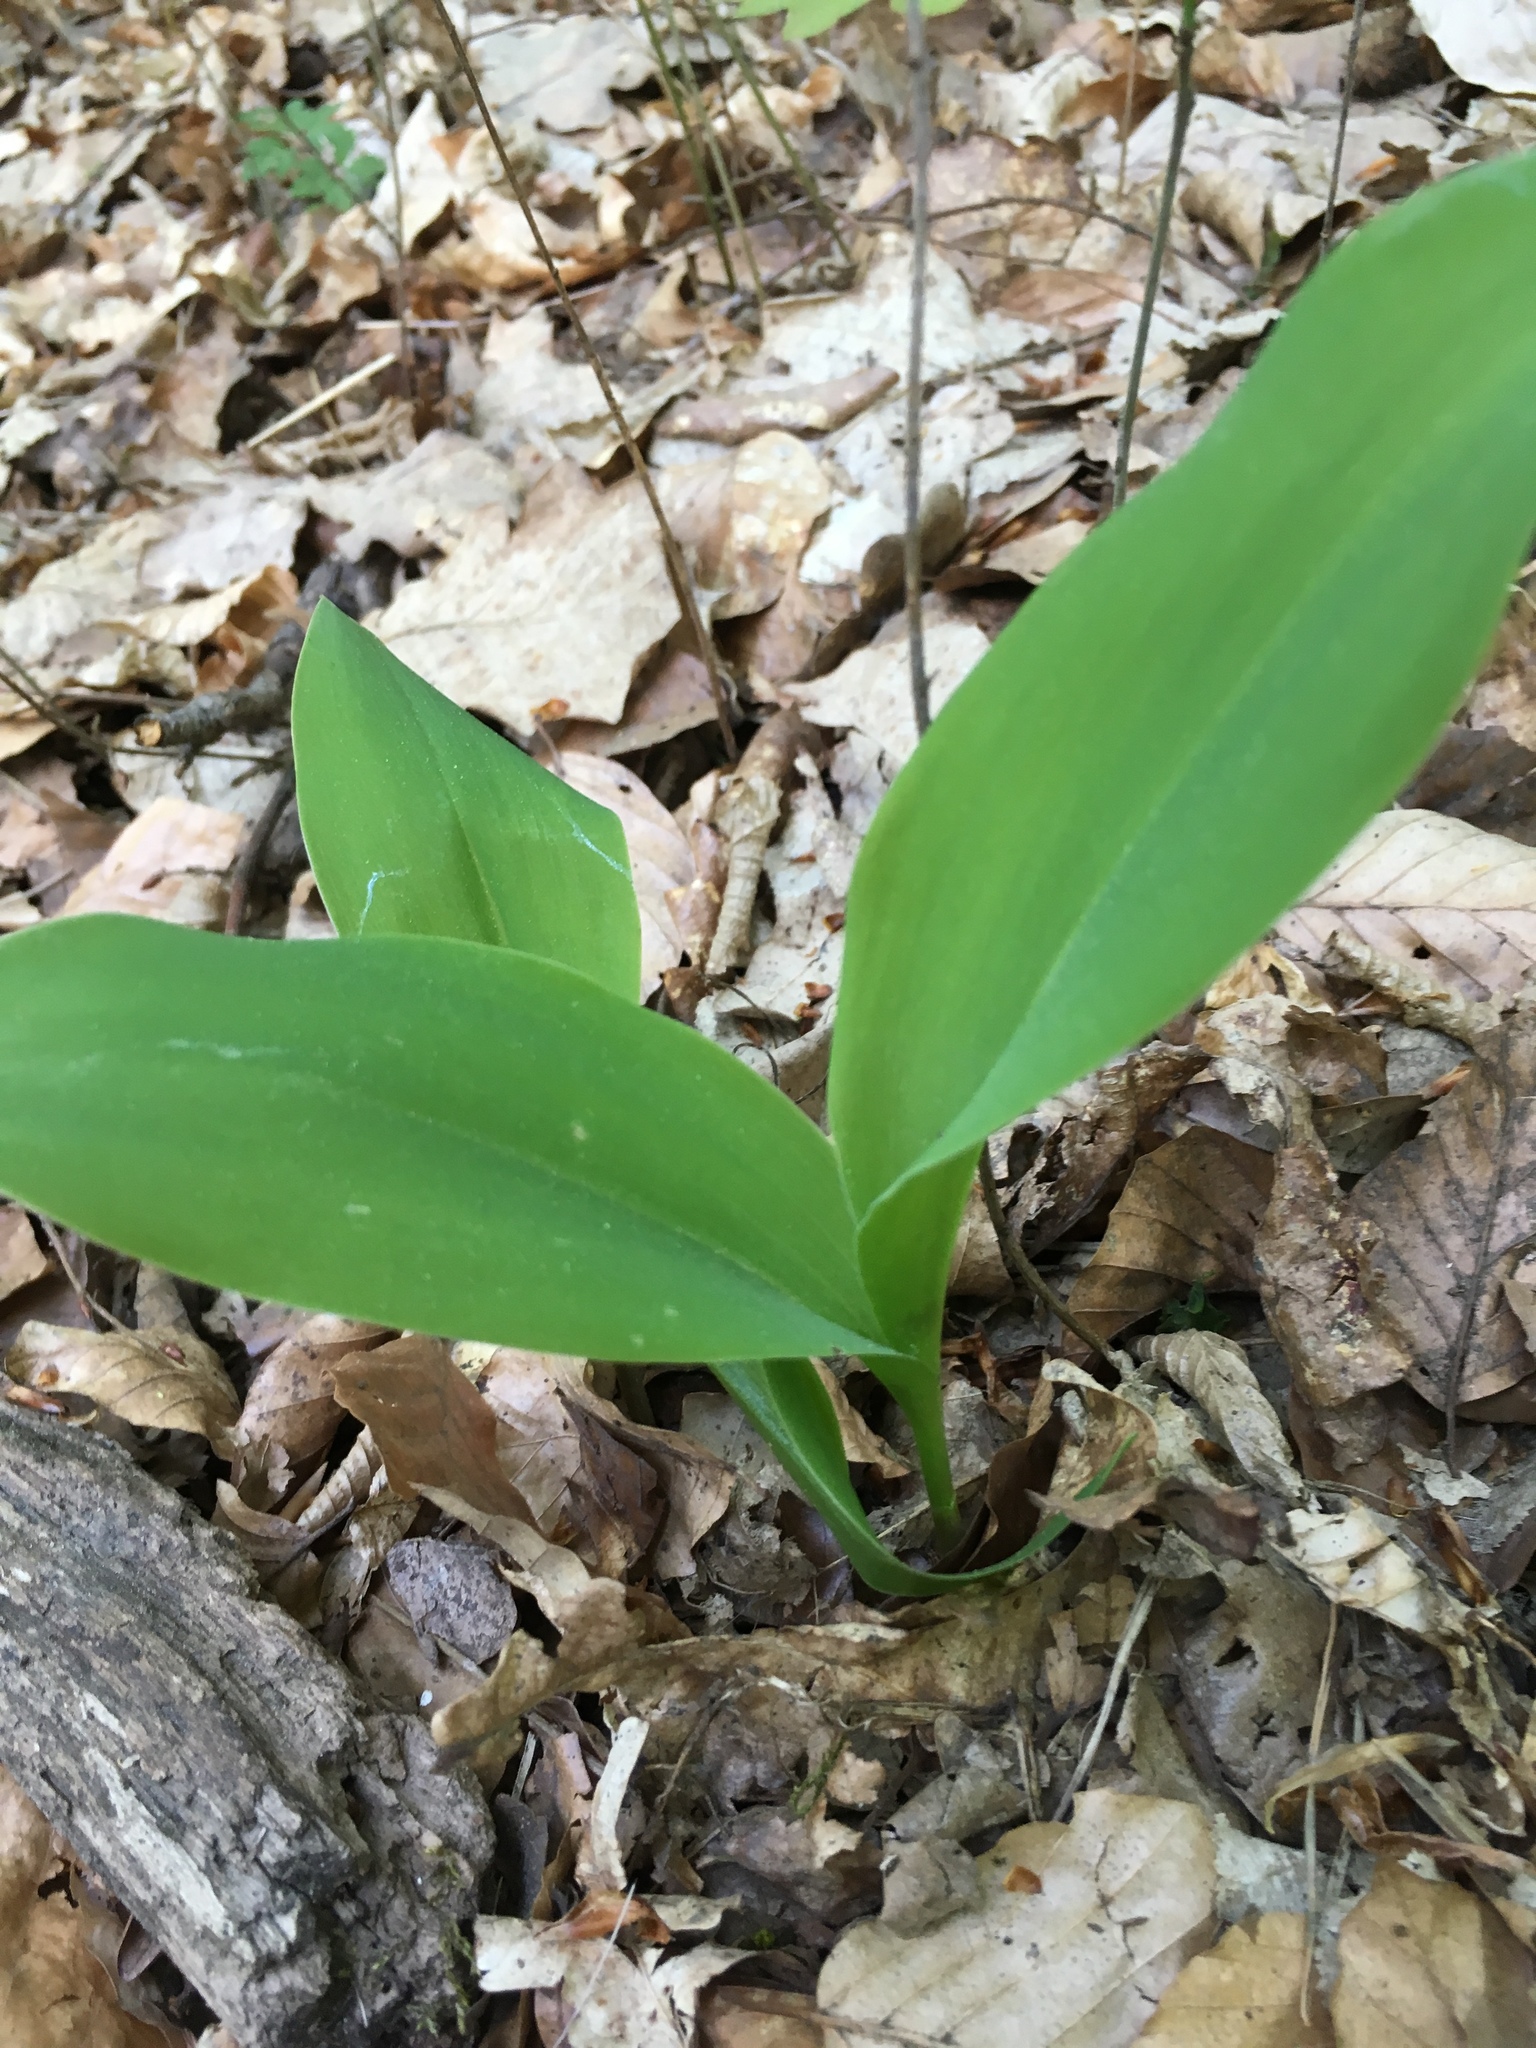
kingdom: Plantae
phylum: Tracheophyta
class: Liliopsida
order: Asparagales
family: Asparagaceae
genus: Convallaria
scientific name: Convallaria majalis
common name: Lily-of-the-valley
